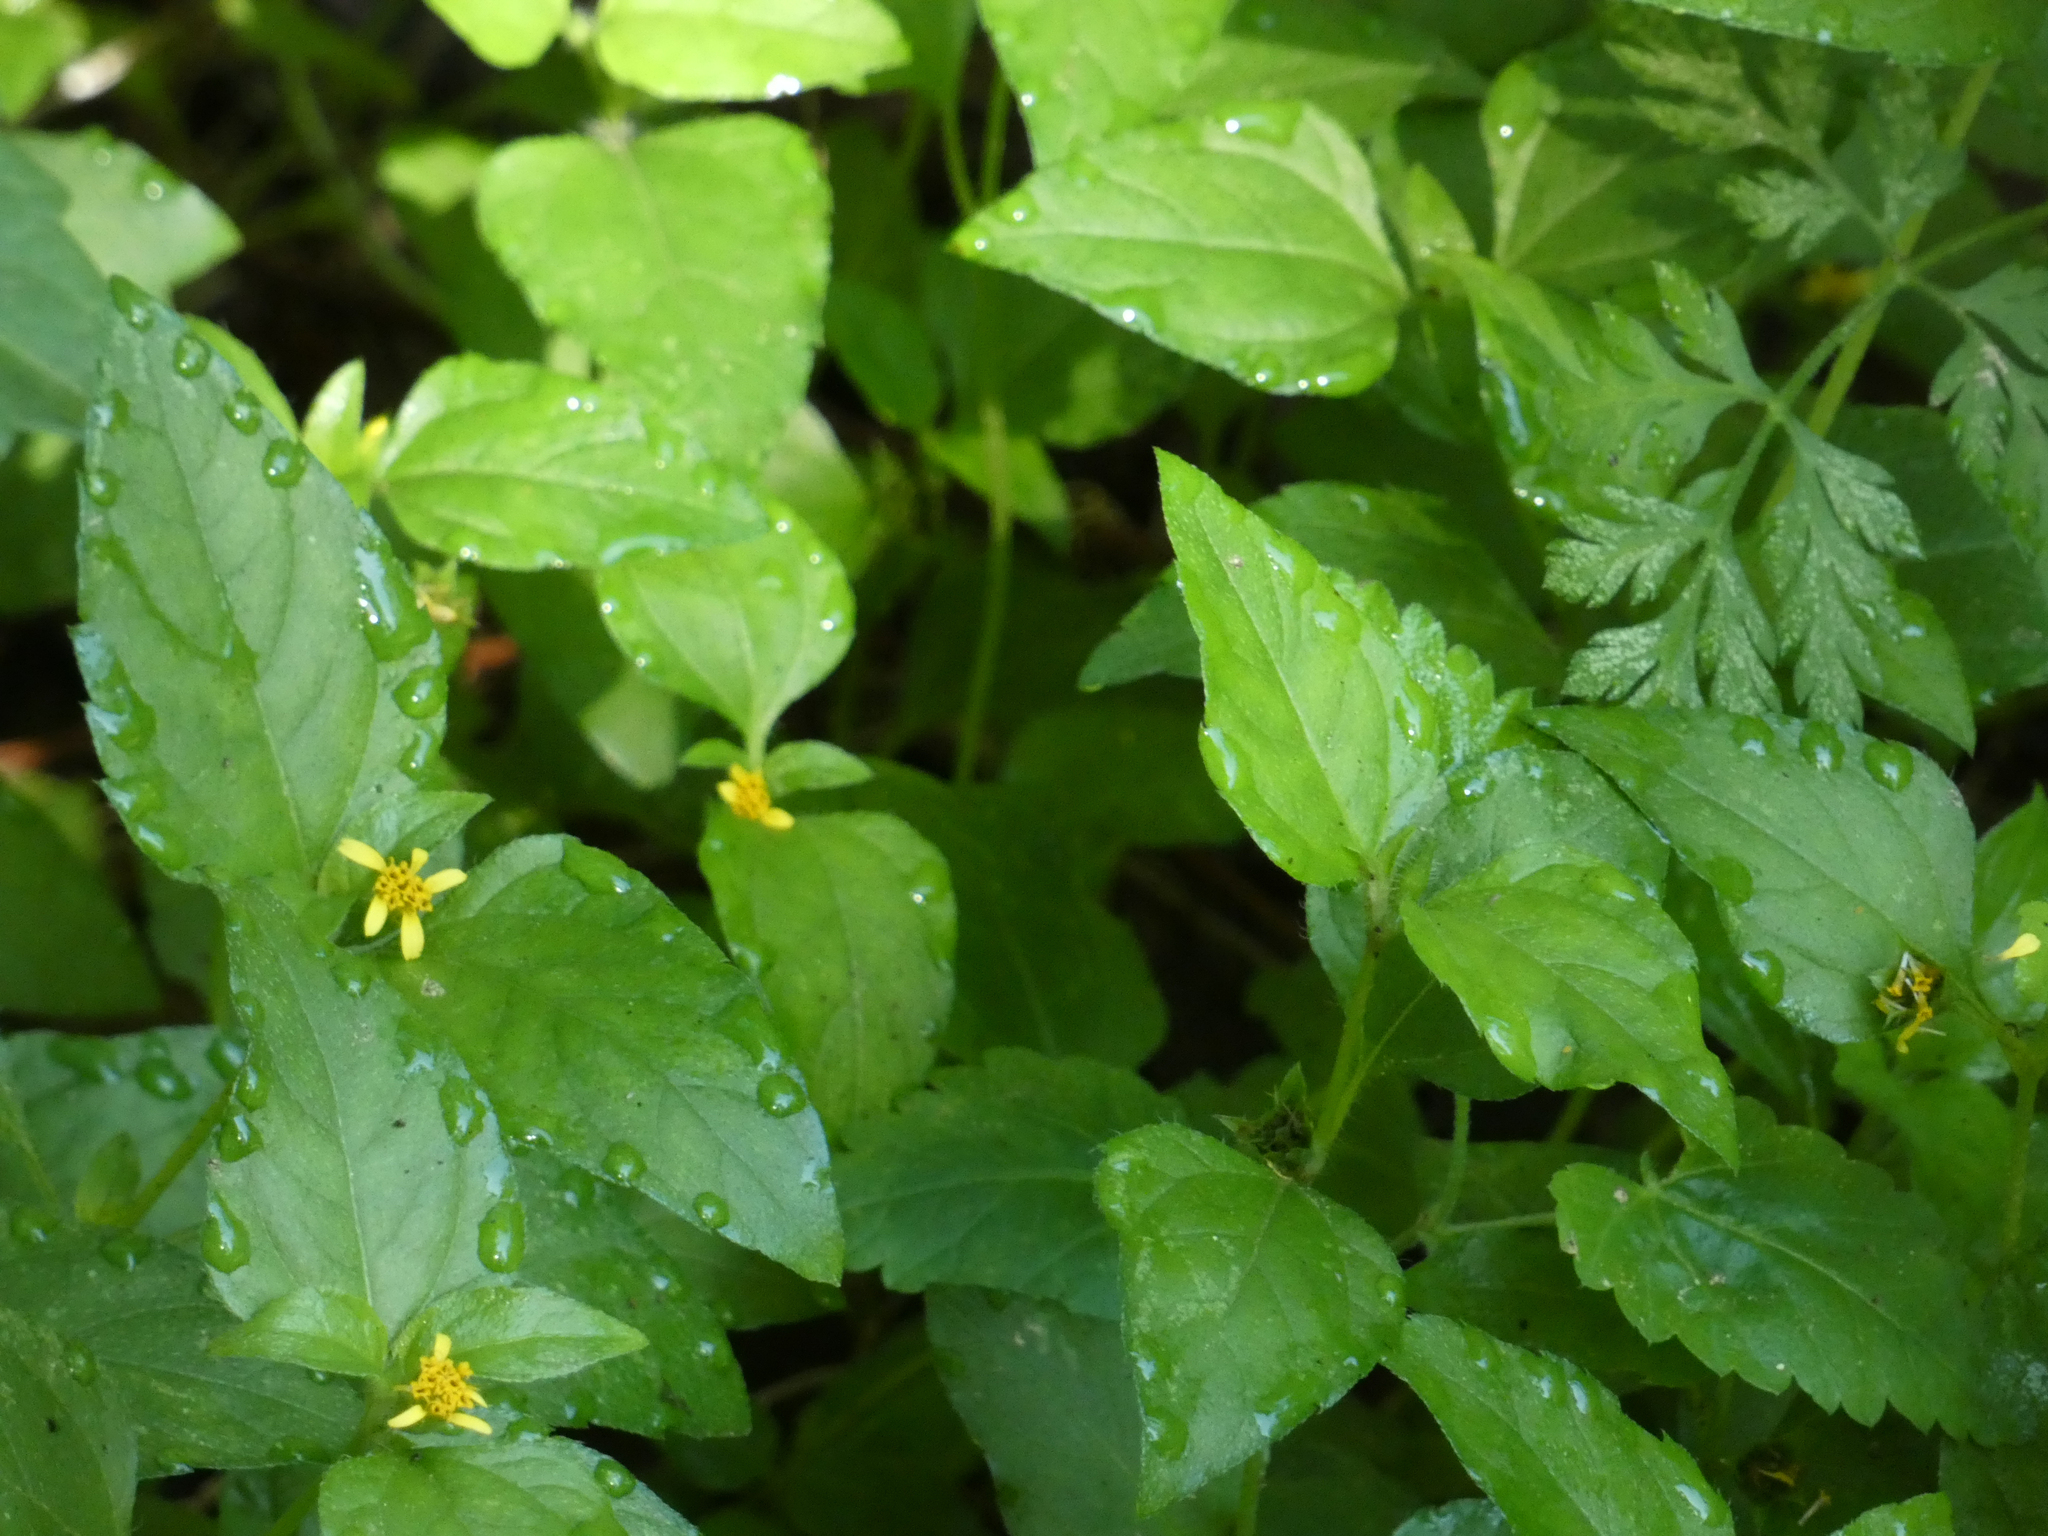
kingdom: Plantae
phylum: Tracheophyta
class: Magnoliopsida
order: Asterales
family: Asteraceae
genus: Calyptocarpus
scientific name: Calyptocarpus vialis
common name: Straggler daisy
